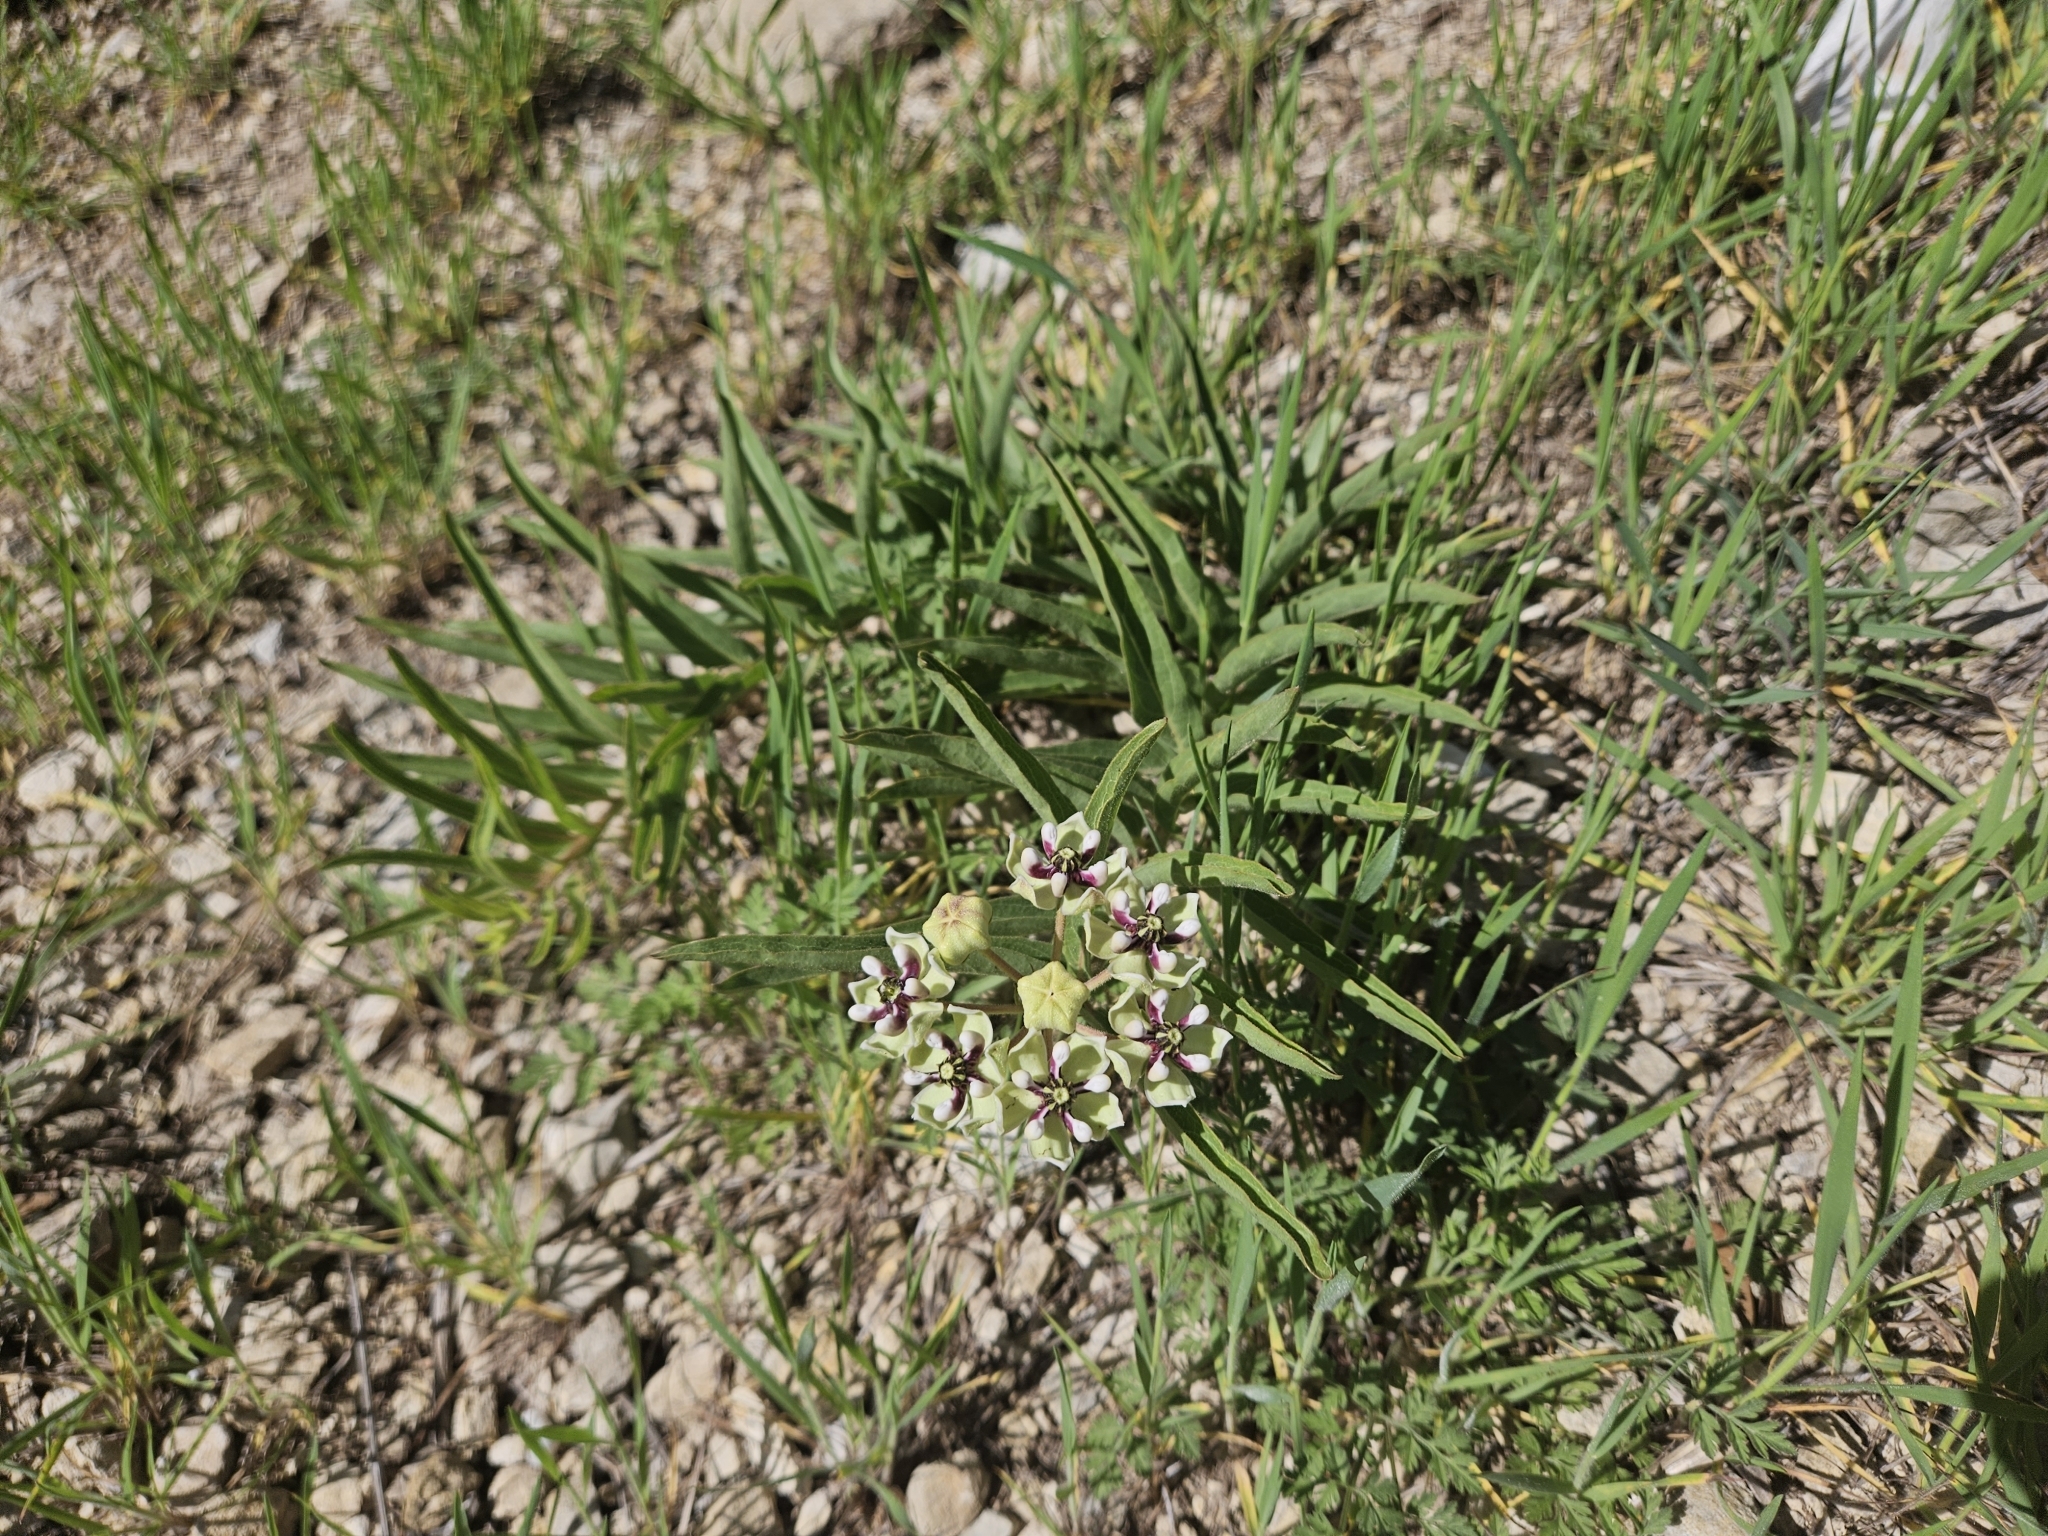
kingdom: Plantae
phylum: Tracheophyta
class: Magnoliopsida
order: Gentianales
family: Apocynaceae
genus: Asclepias
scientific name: Asclepias asperula
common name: Antelope horns
